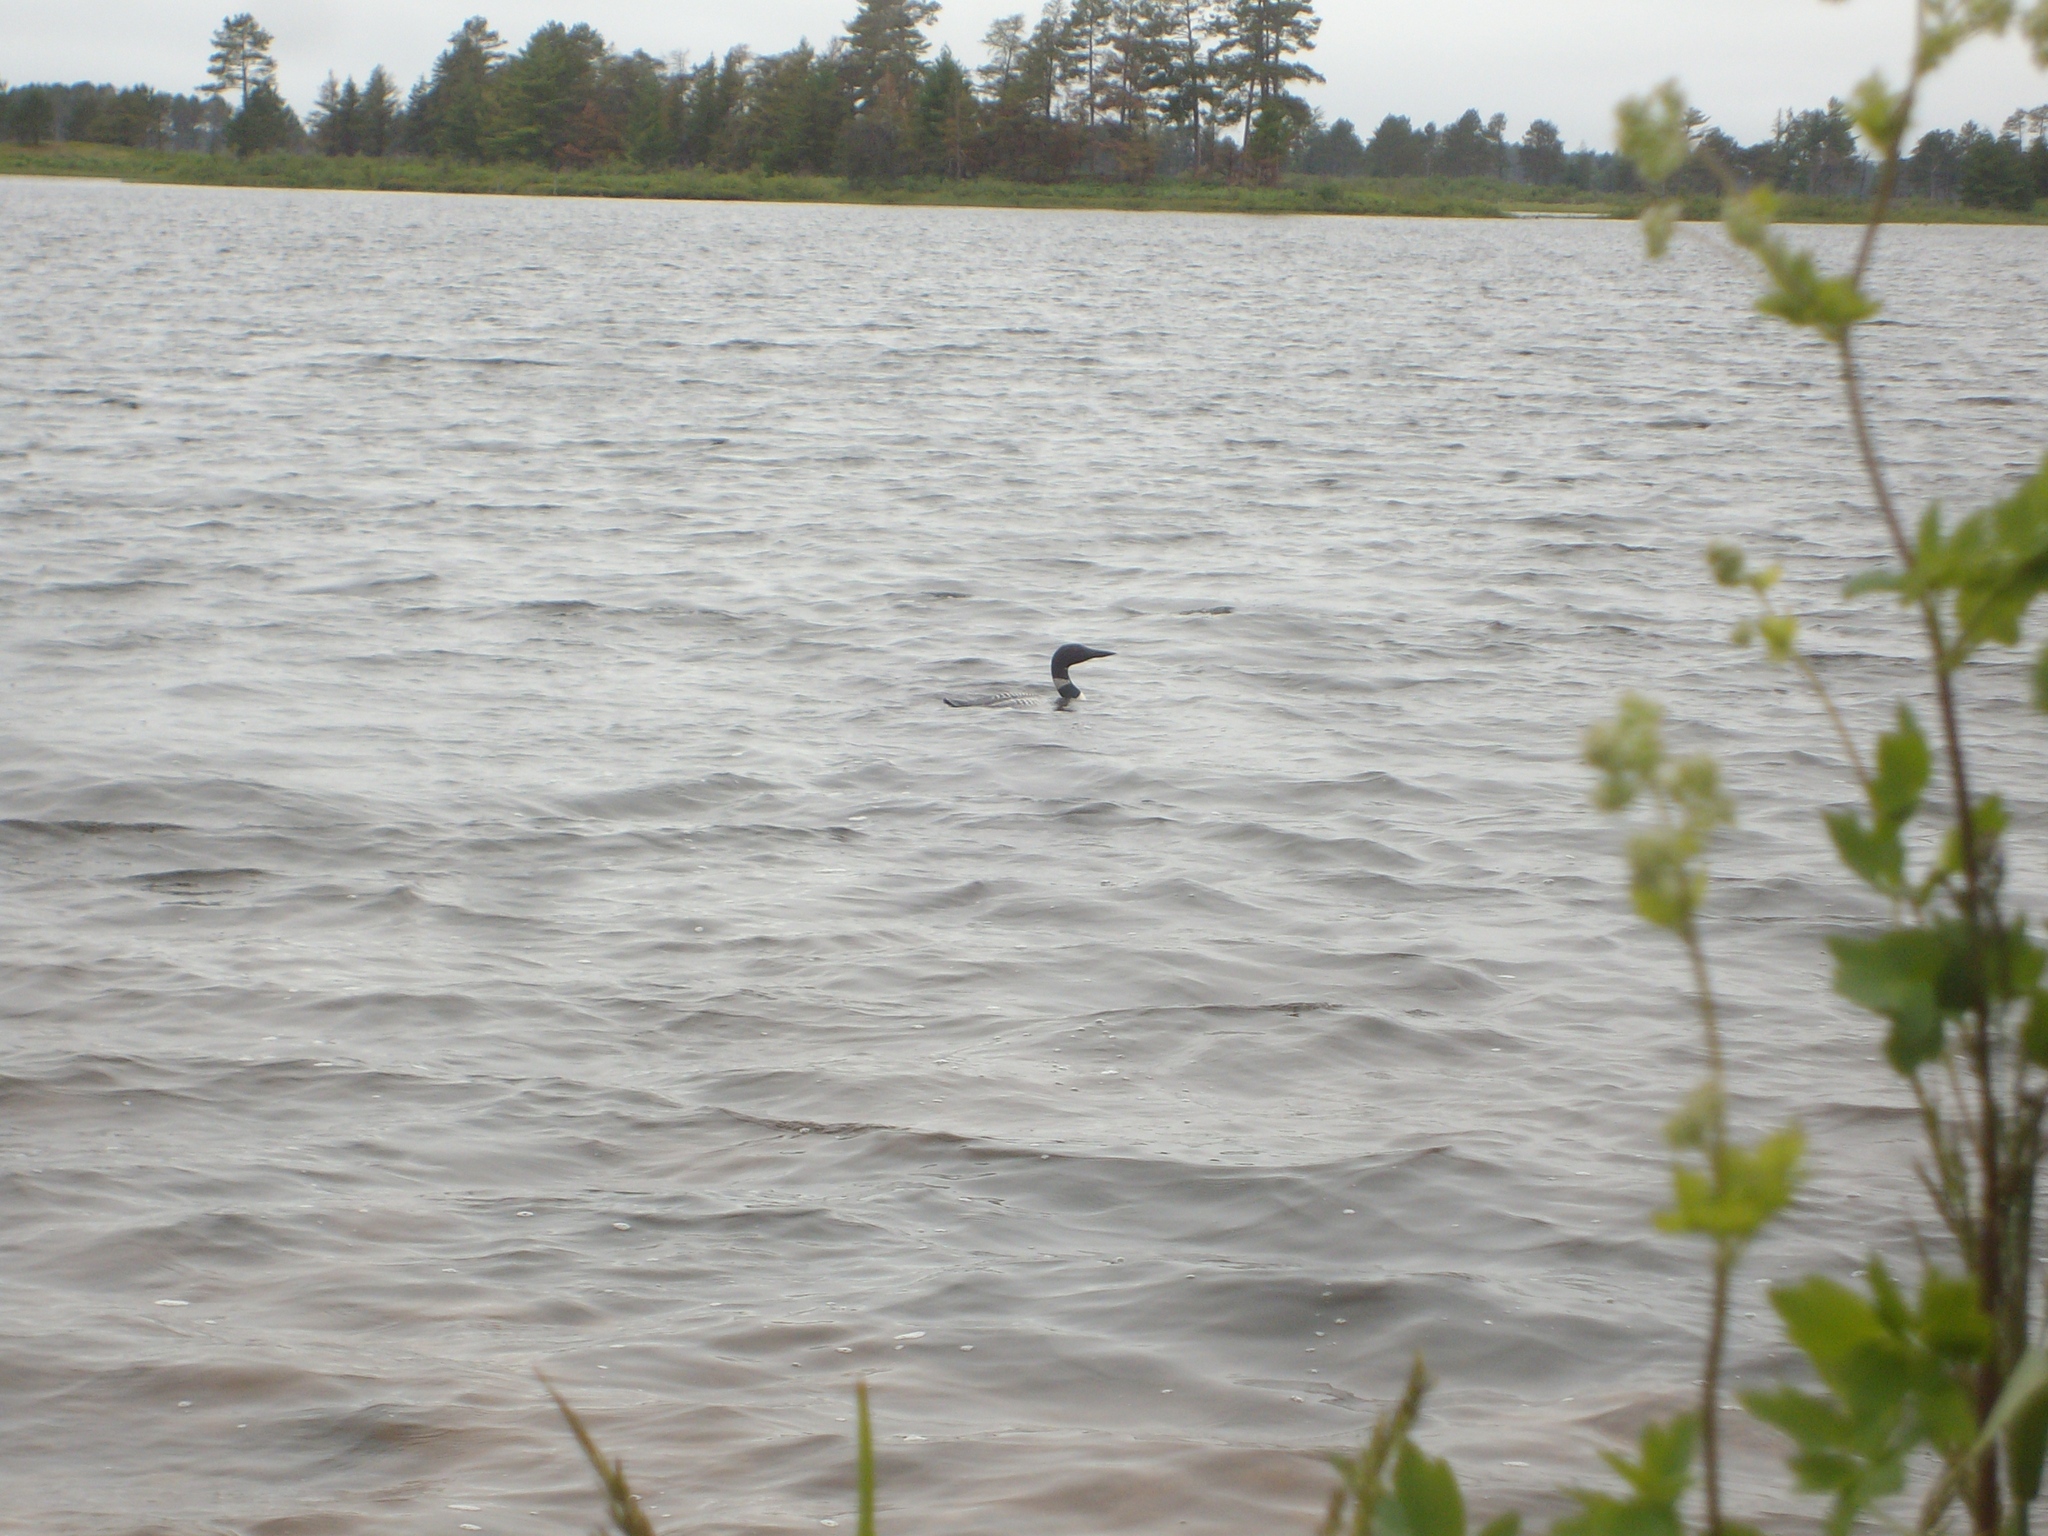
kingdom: Animalia
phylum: Chordata
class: Aves
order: Gaviiformes
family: Gaviidae
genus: Gavia
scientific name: Gavia immer
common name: Common loon
